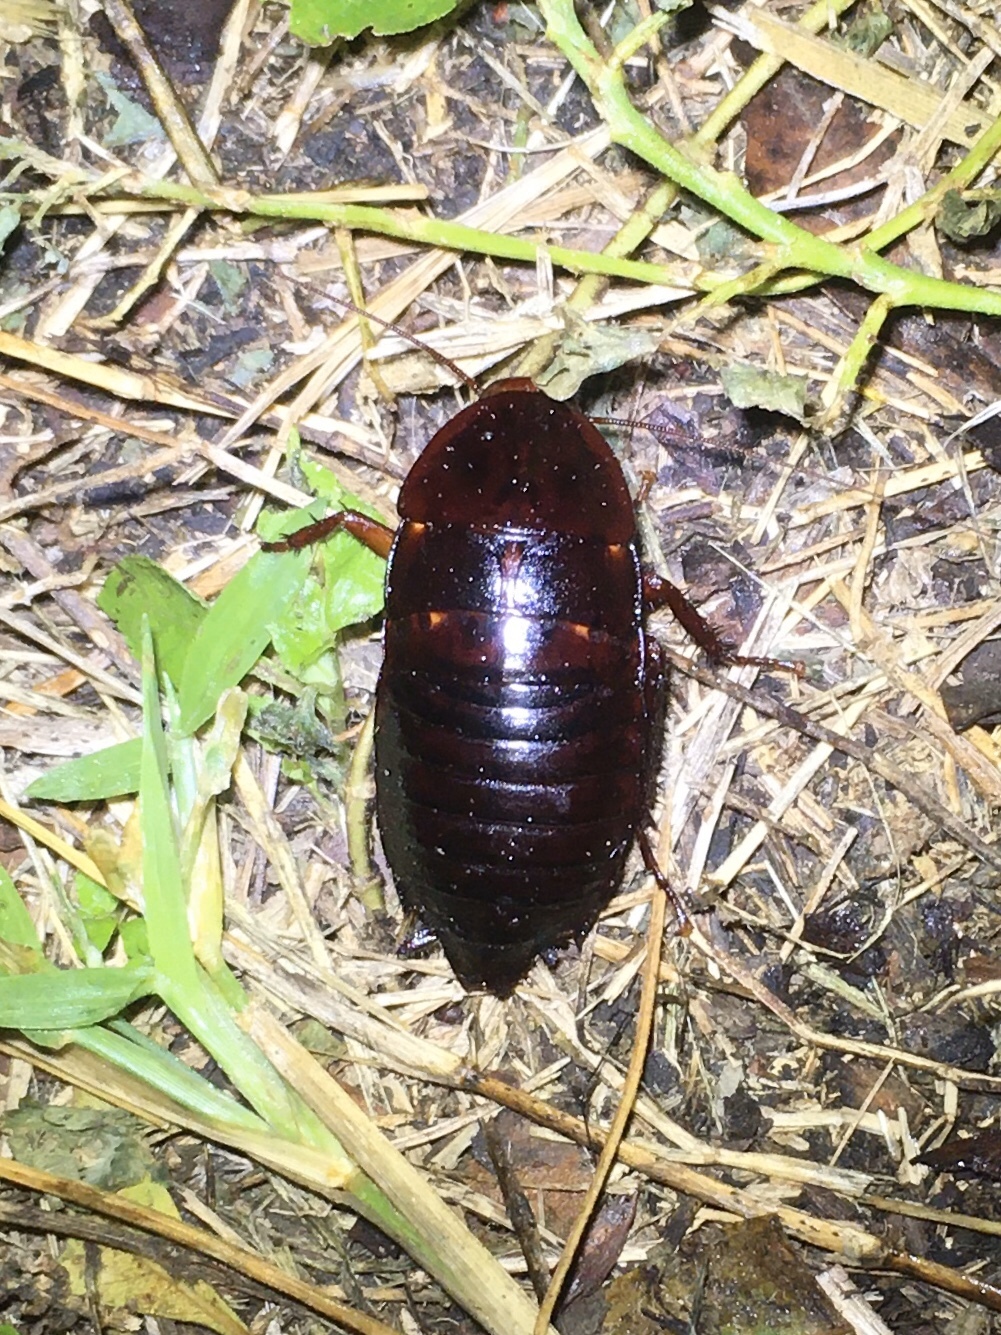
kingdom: Animalia
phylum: Arthropoda
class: Insecta
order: Blattodea
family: Blattidae
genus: Eurycotis
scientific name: Eurycotis floridana
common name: Florida cockroach
